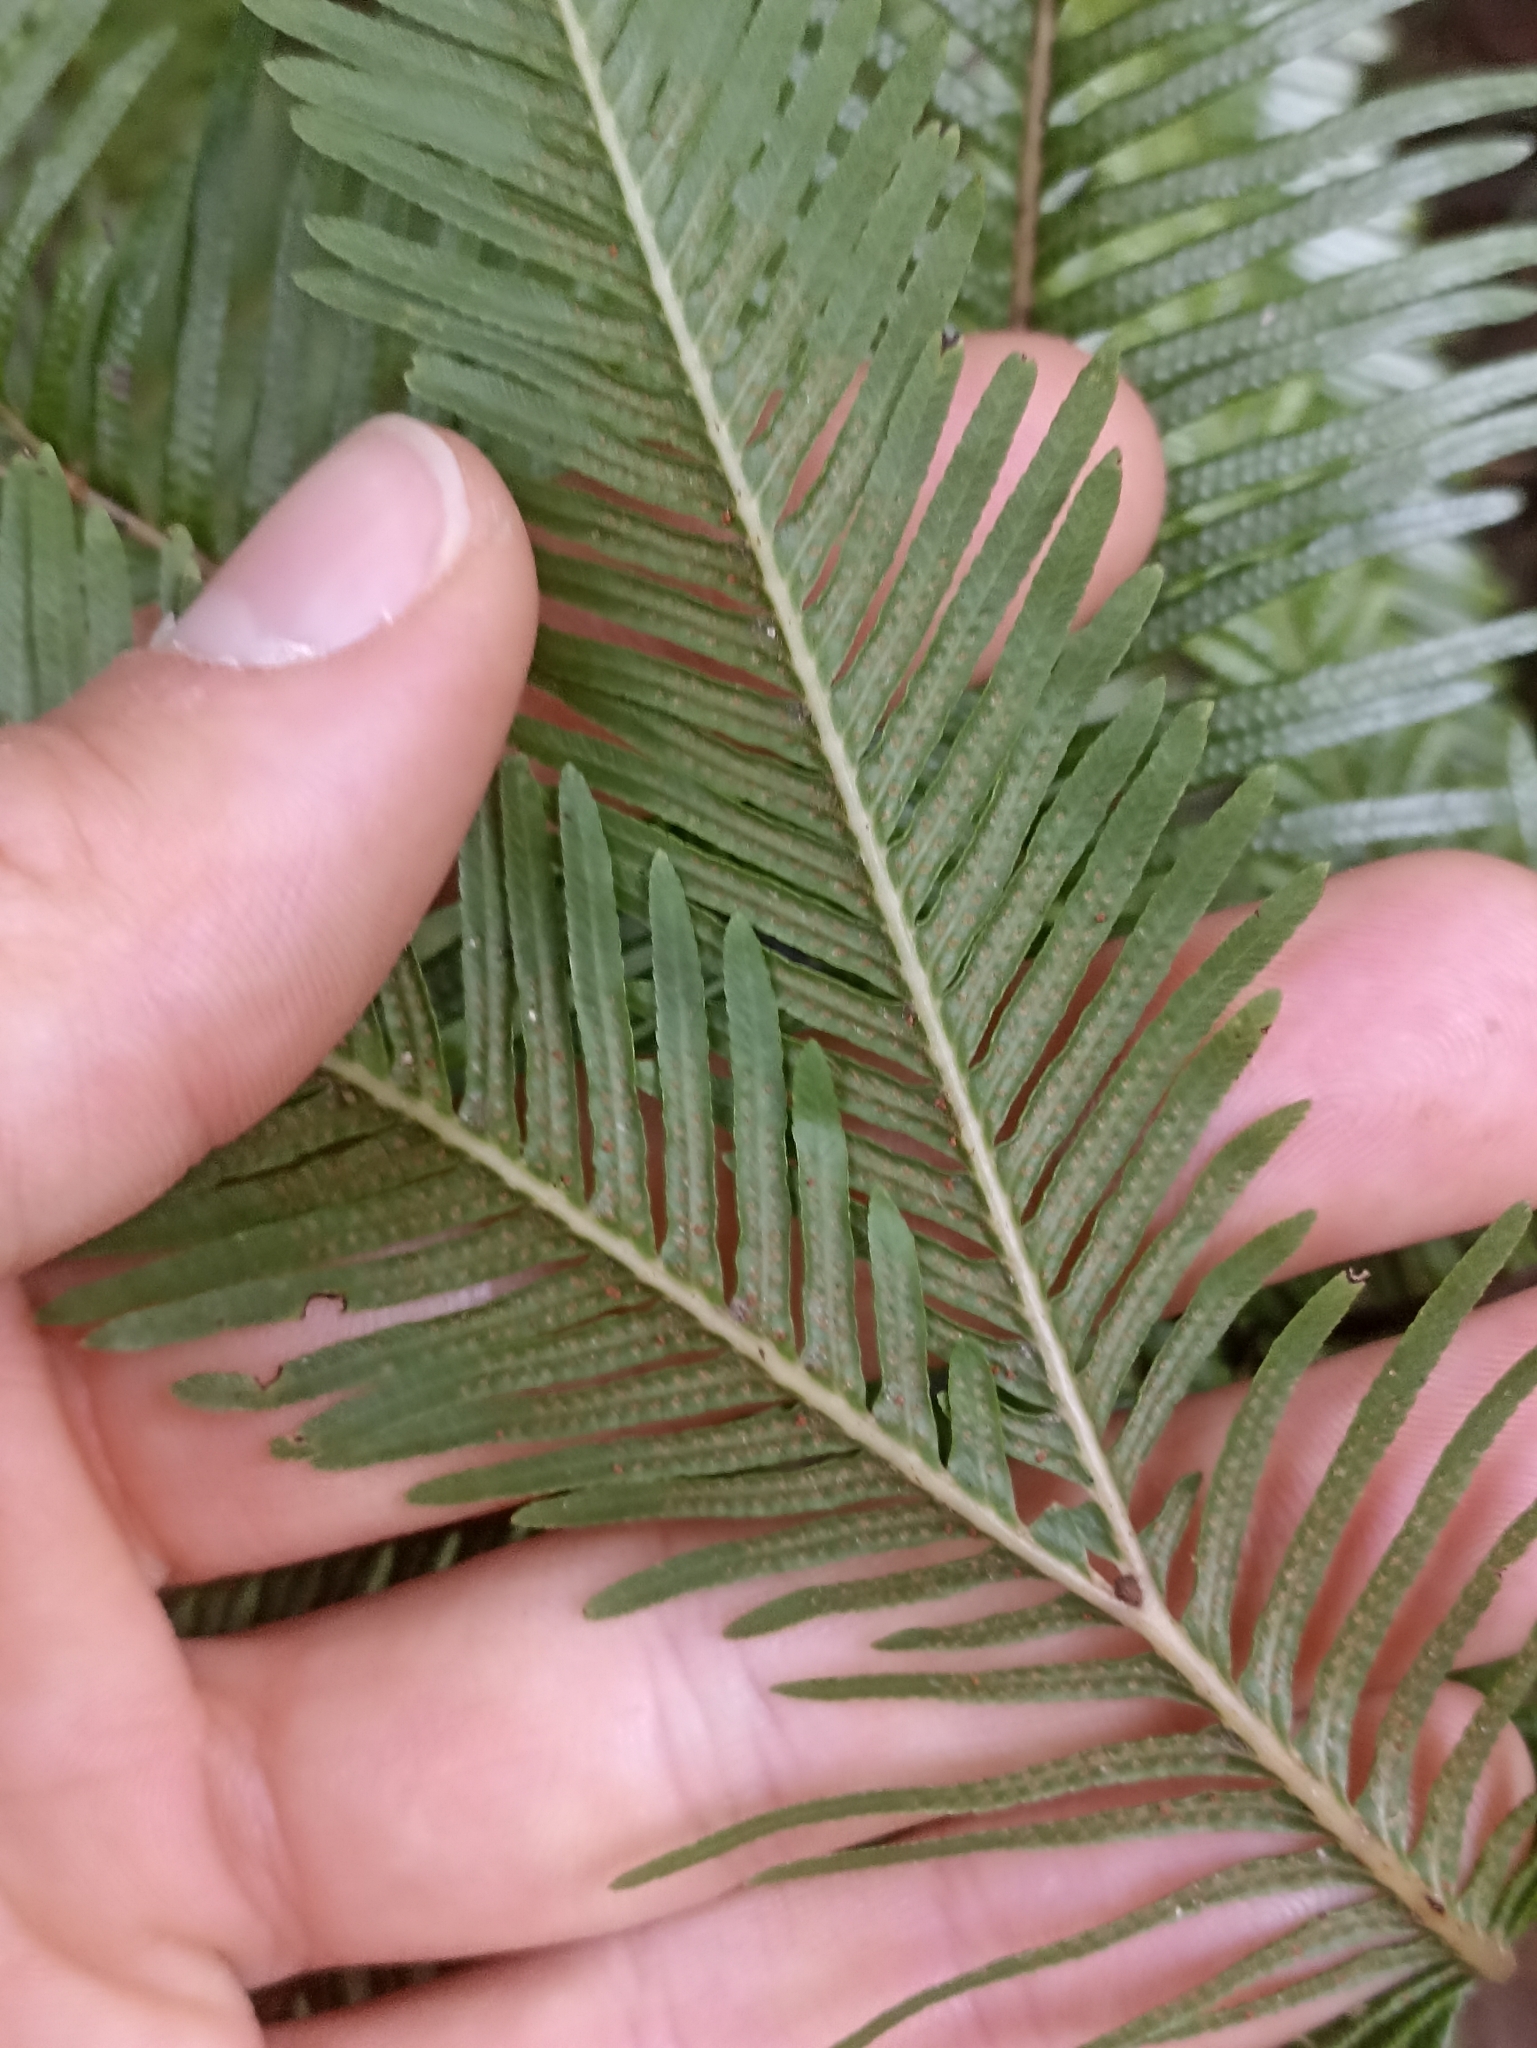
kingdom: Plantae
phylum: Tracheophyta
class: Polypodiopsida
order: Gleicheniales
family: Gleicheniaceae
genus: Sticherus
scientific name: Sticherus flabellatus
